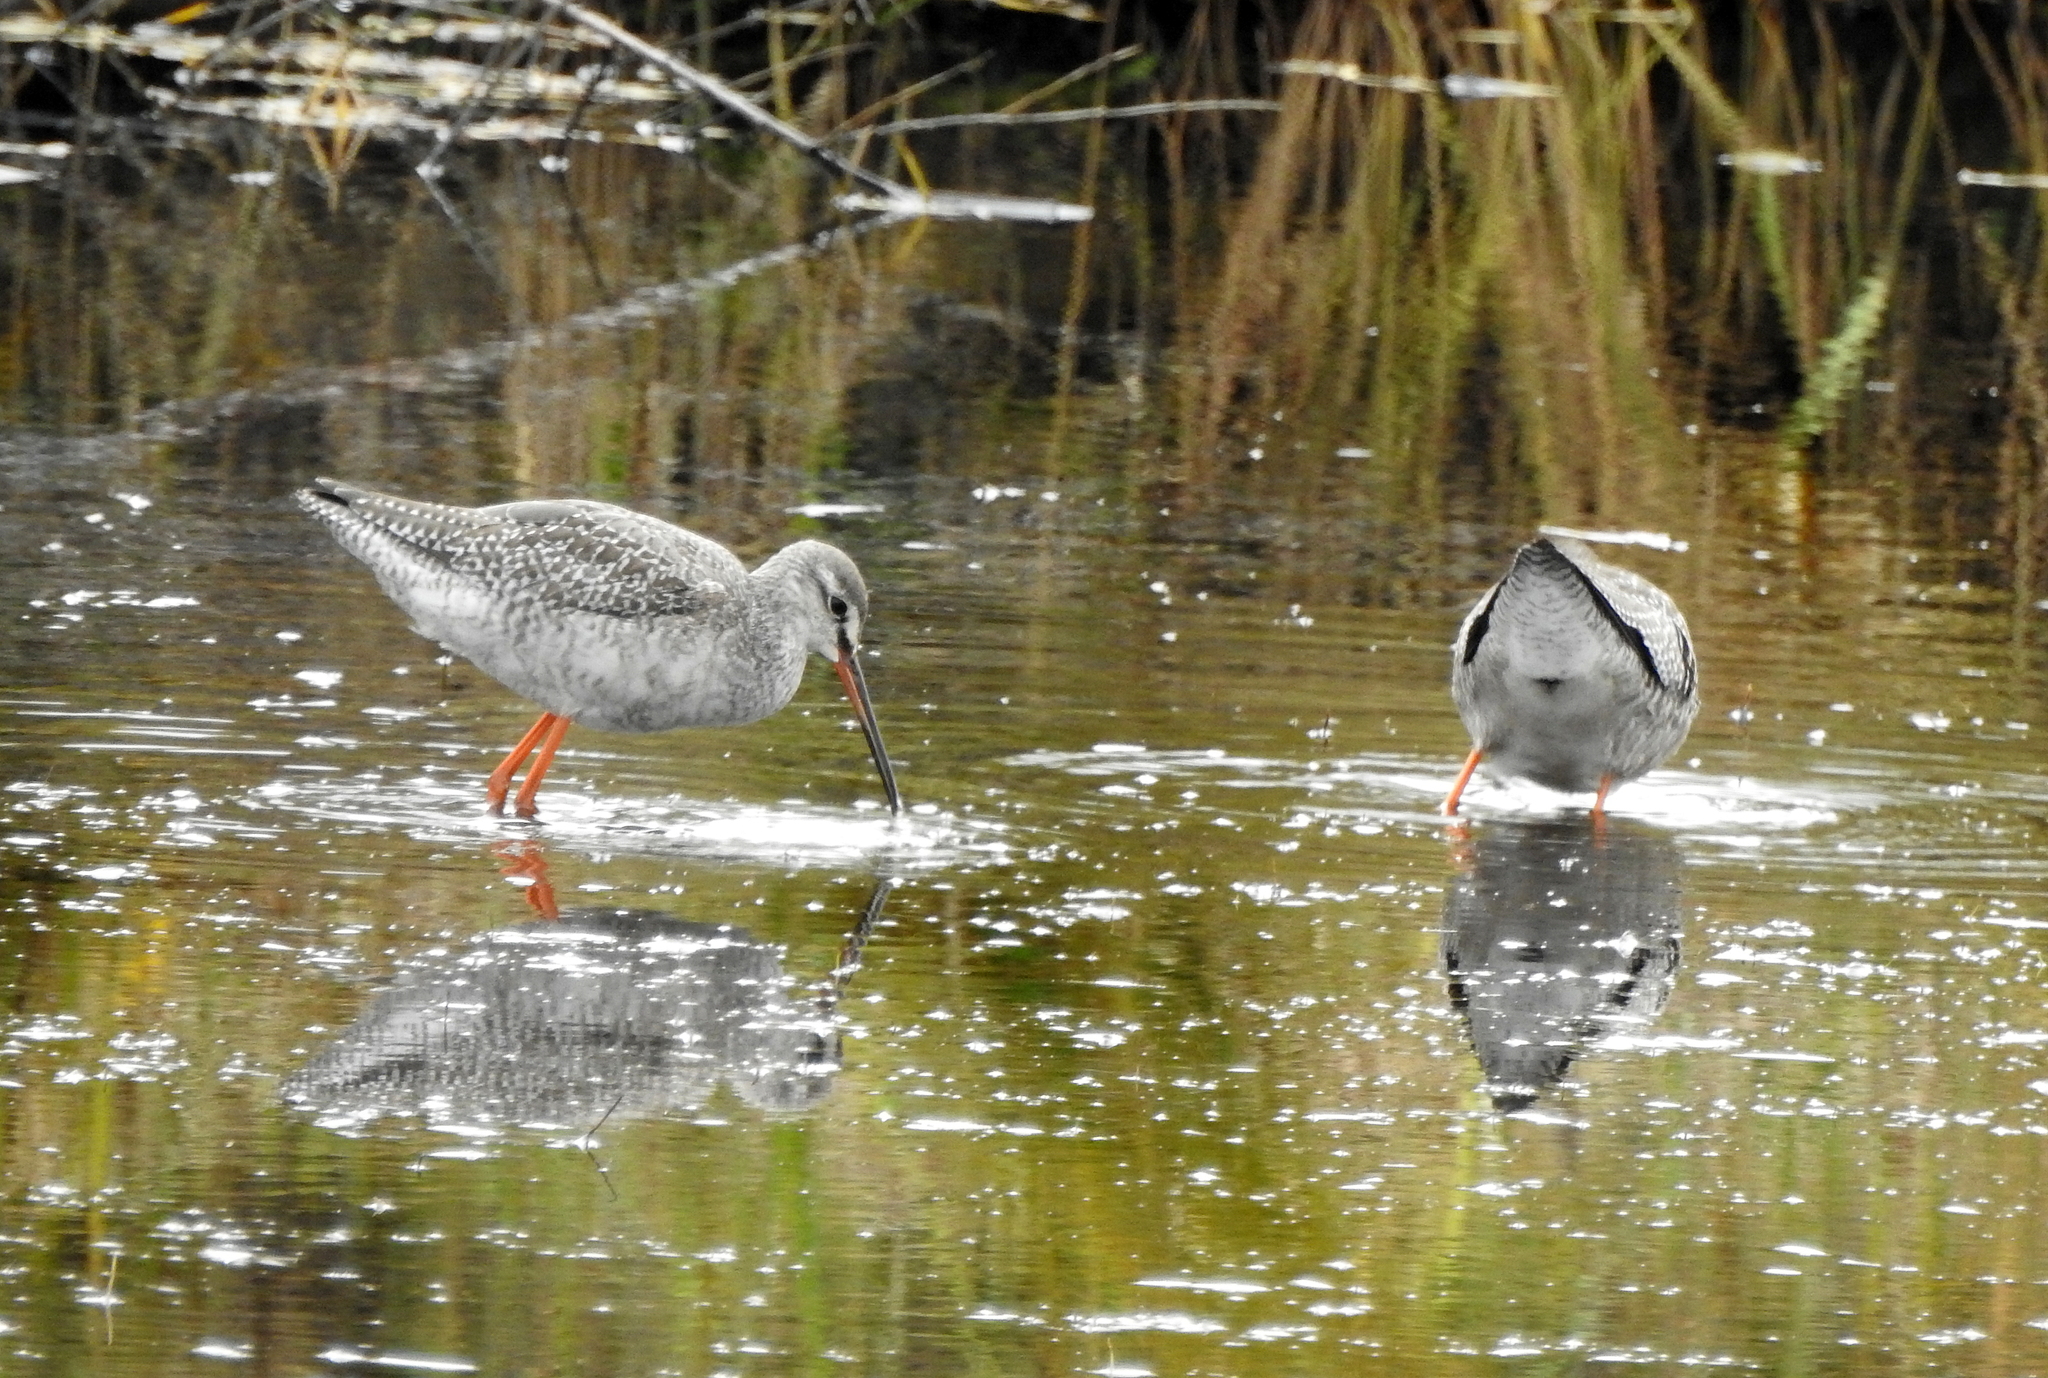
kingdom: Animalia
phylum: Chordata
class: Aves
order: Charadriiformes
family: Scolopacidae
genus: Tringa
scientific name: Tringa erythropus
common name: Spotted redshank
